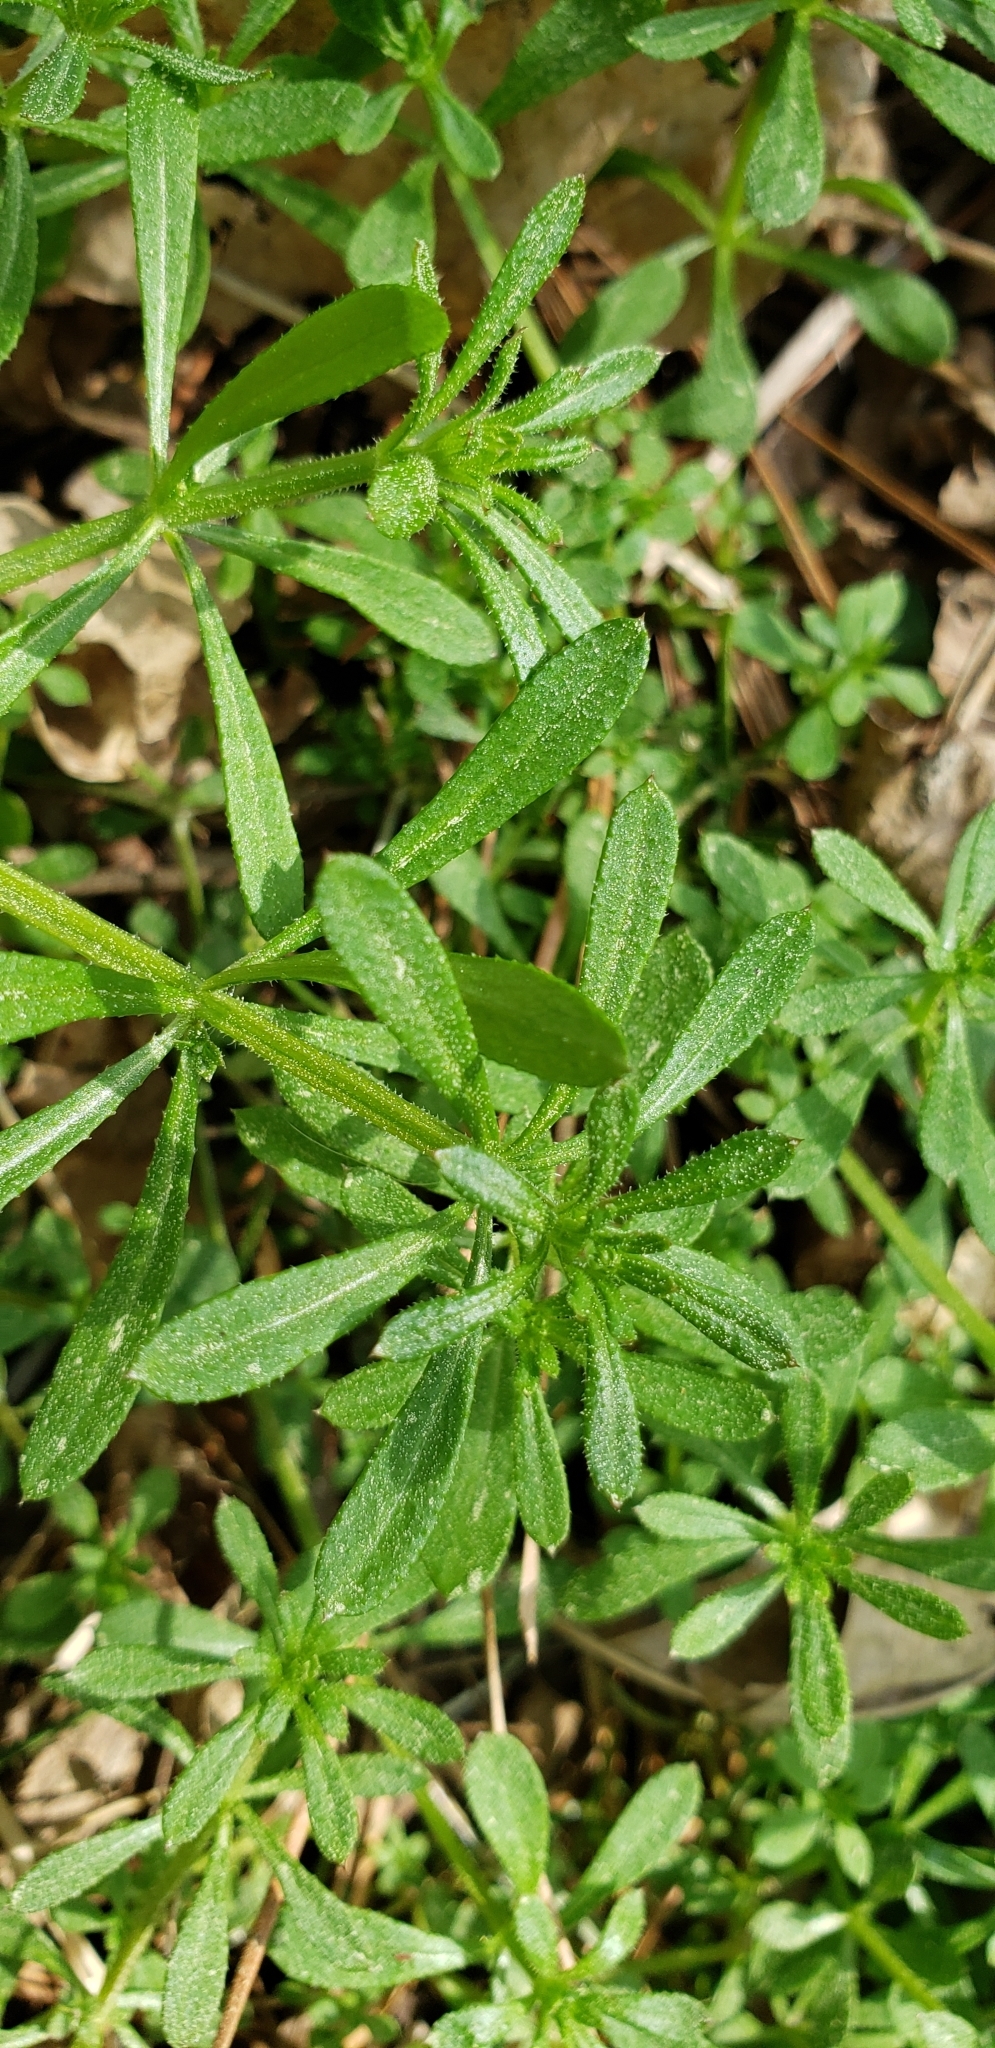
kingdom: Plantae
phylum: Tracheophyta
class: Magnoliopsida
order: Gentianales
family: Rubiaceae
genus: Galium
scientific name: Galium aparine
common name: Cleavers
